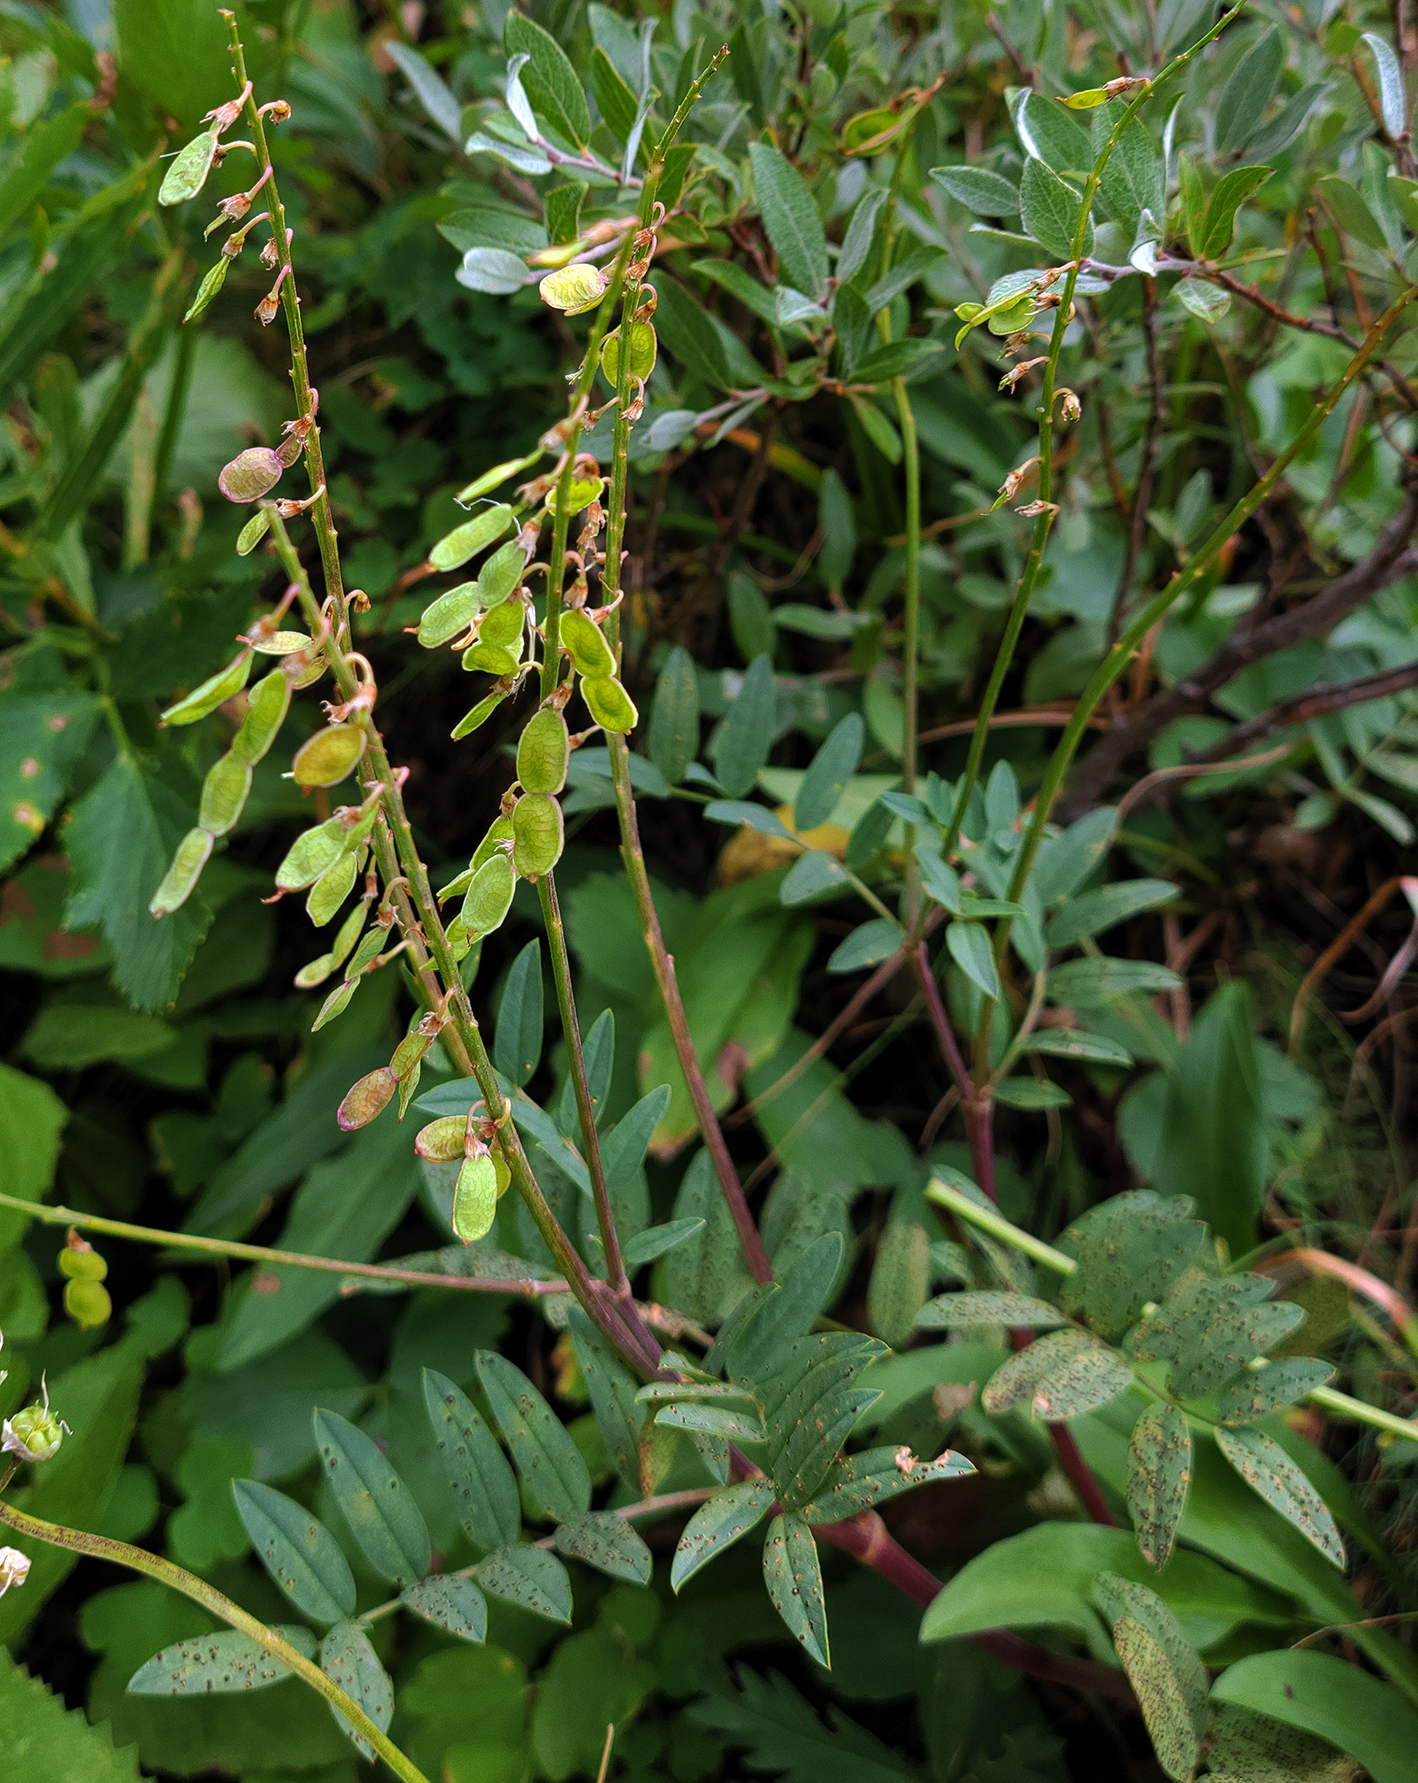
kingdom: Plantae
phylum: Tracheophyta
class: Magnoliopsida
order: Fabales
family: Fabaceae
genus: Hedysarum
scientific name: Hedysarum alpinum
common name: Alpine sweet-vetch
